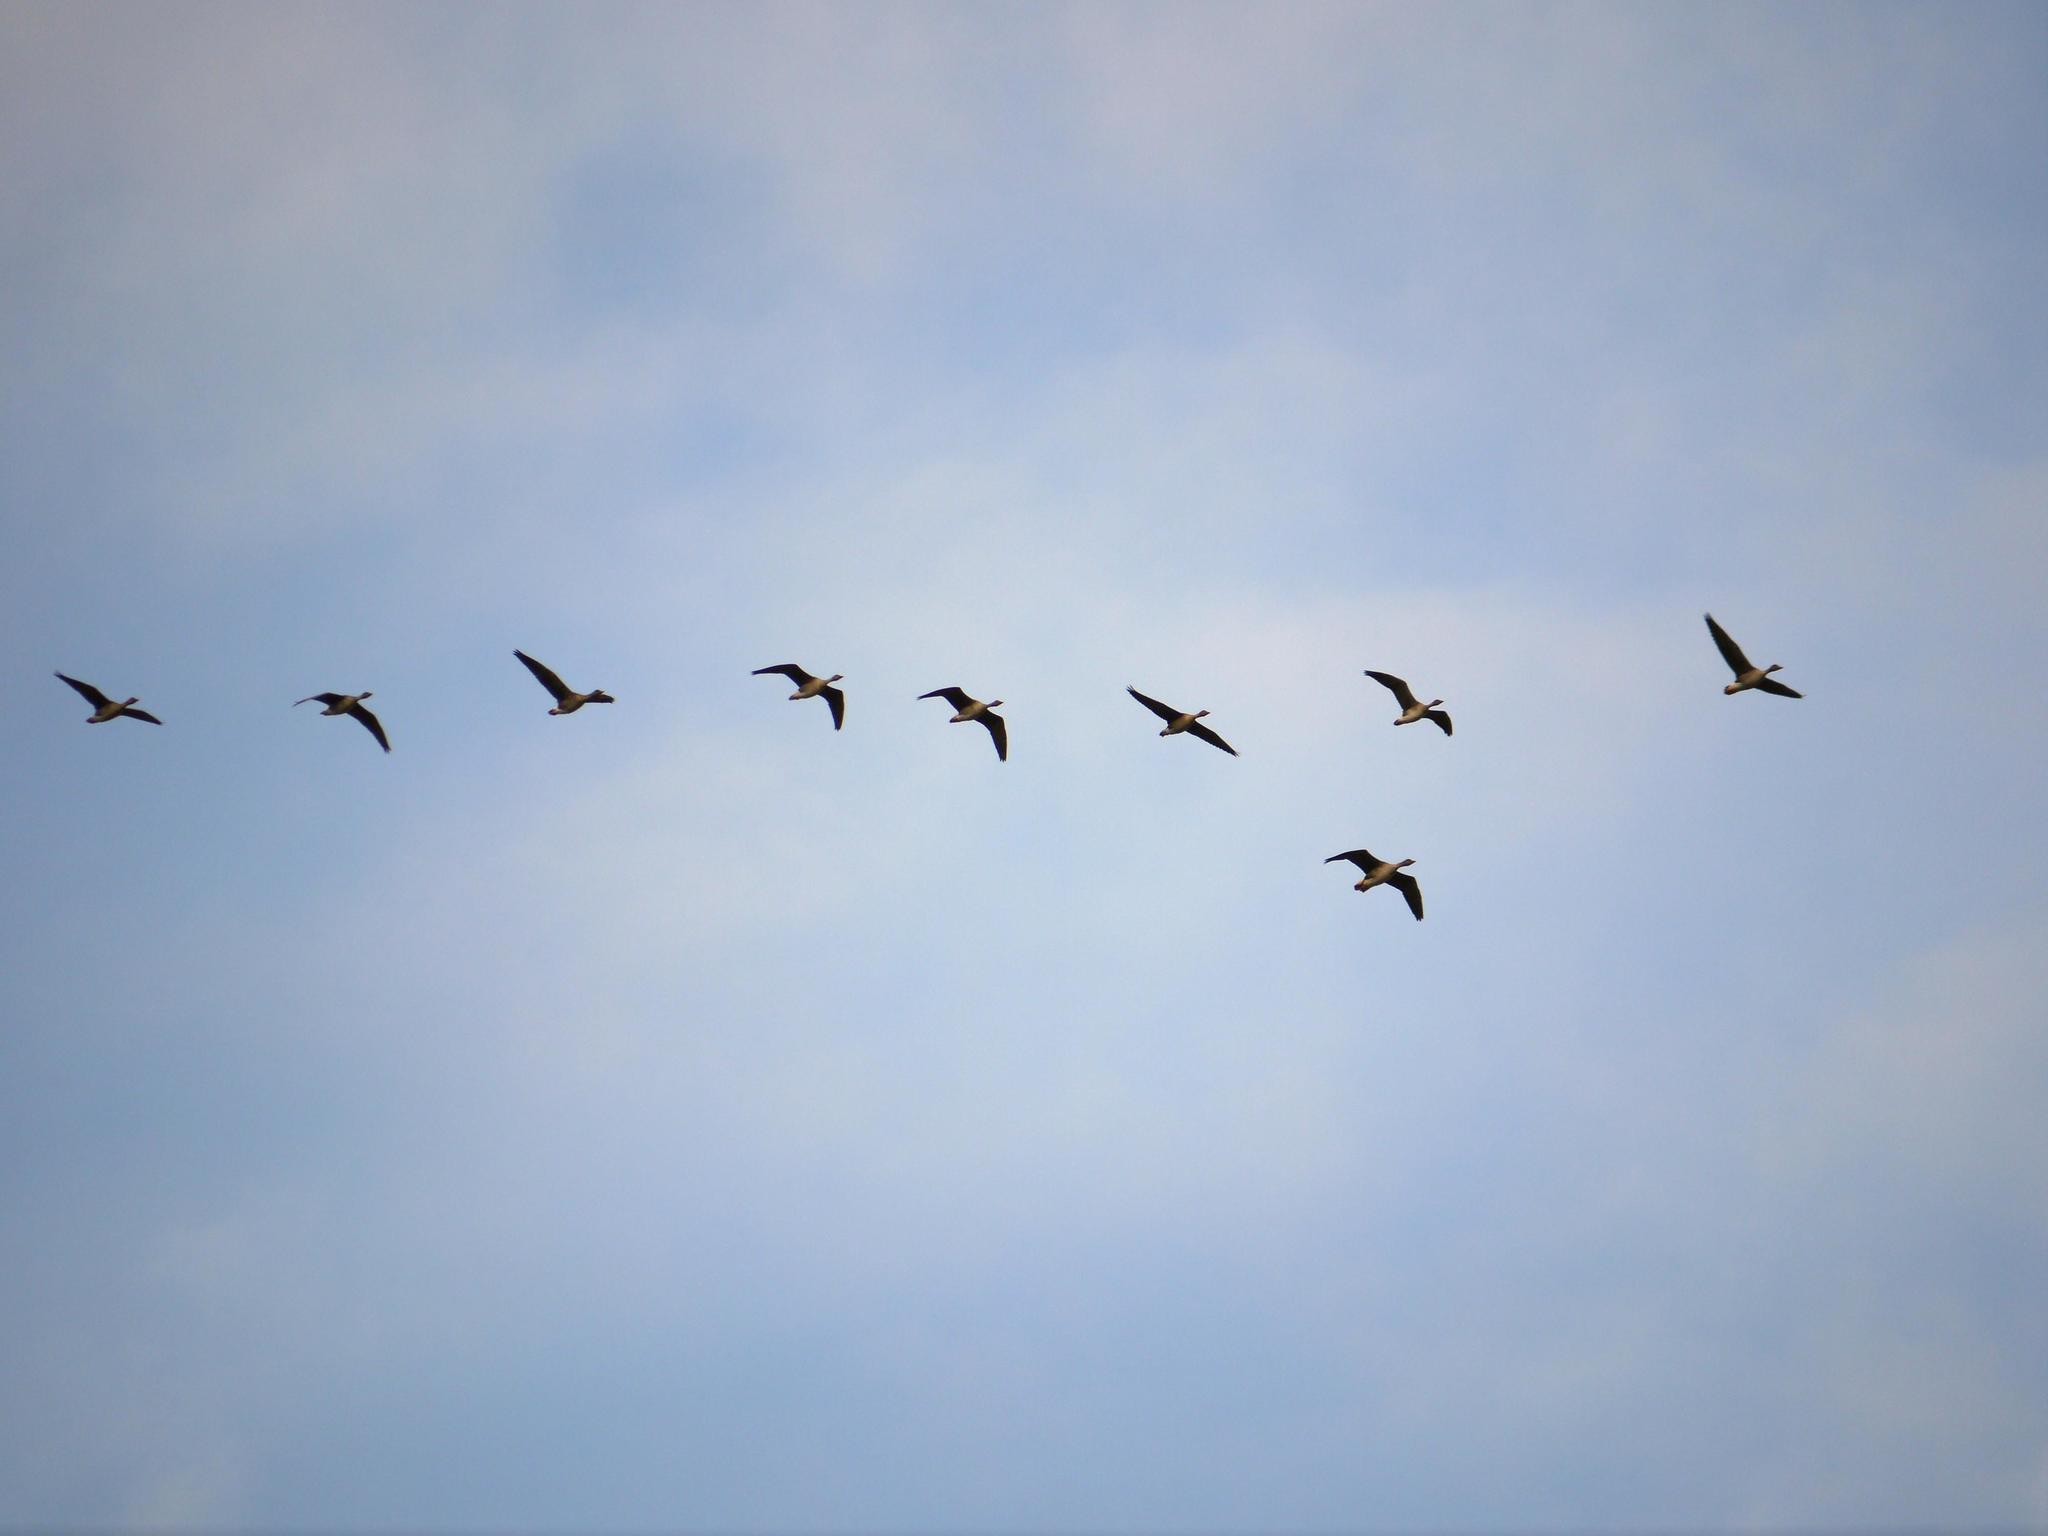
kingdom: Animalia
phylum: Chordata
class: Aves
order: Anseriformes
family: Anatidae
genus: Anser
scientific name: Anser fabalis
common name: Bean goose
